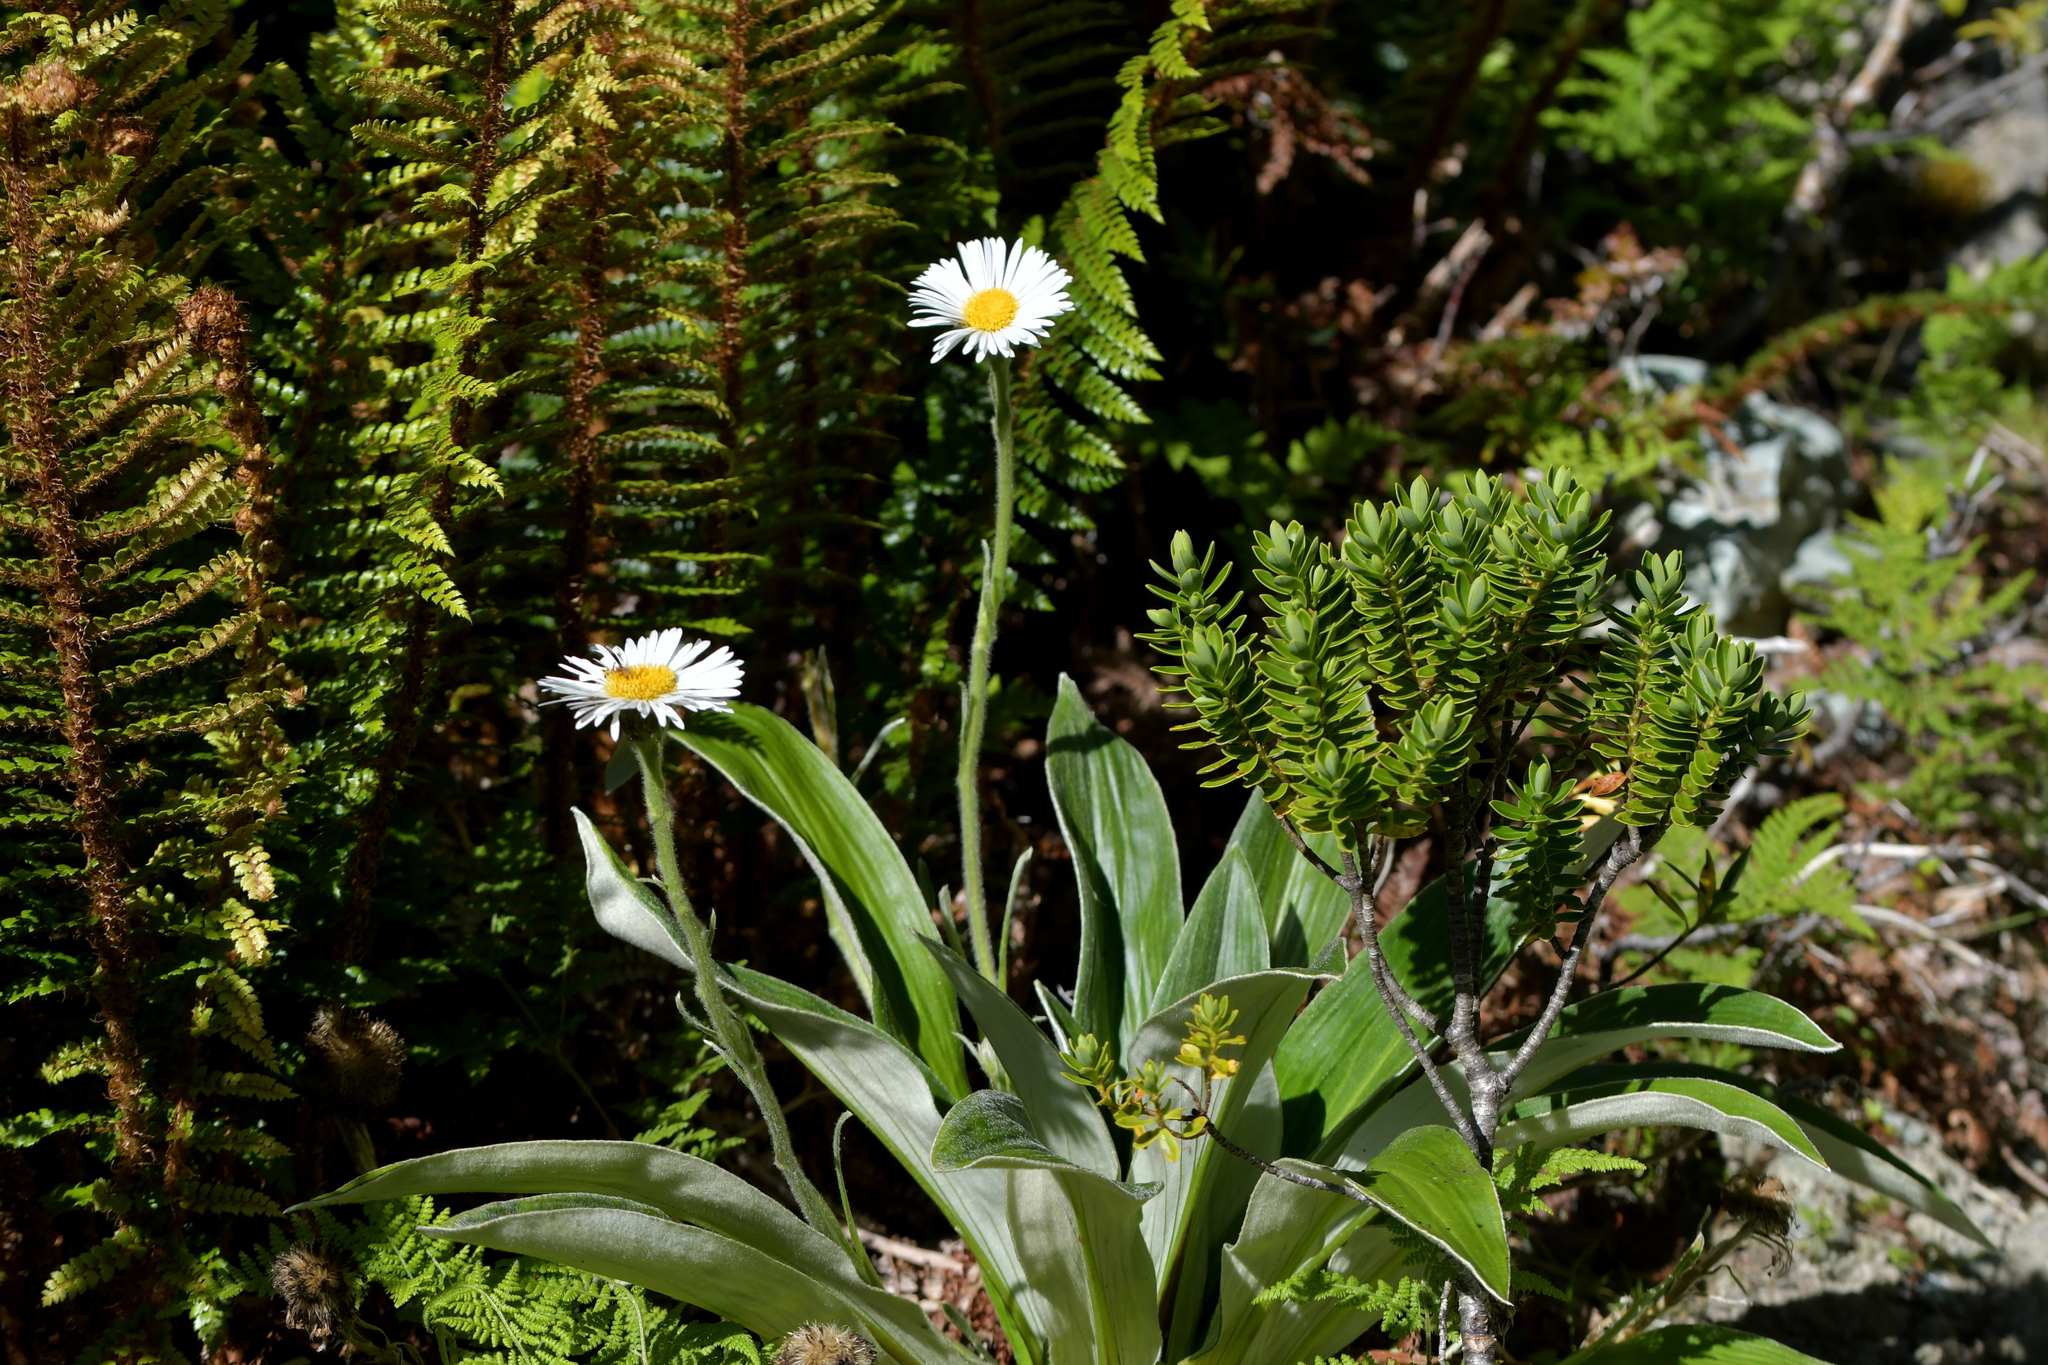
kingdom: Plantae
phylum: Tracheophyta
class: Magnoliopsida
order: Asterales
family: Asteraceae
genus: Celmisia
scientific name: Celmisia semicordata
